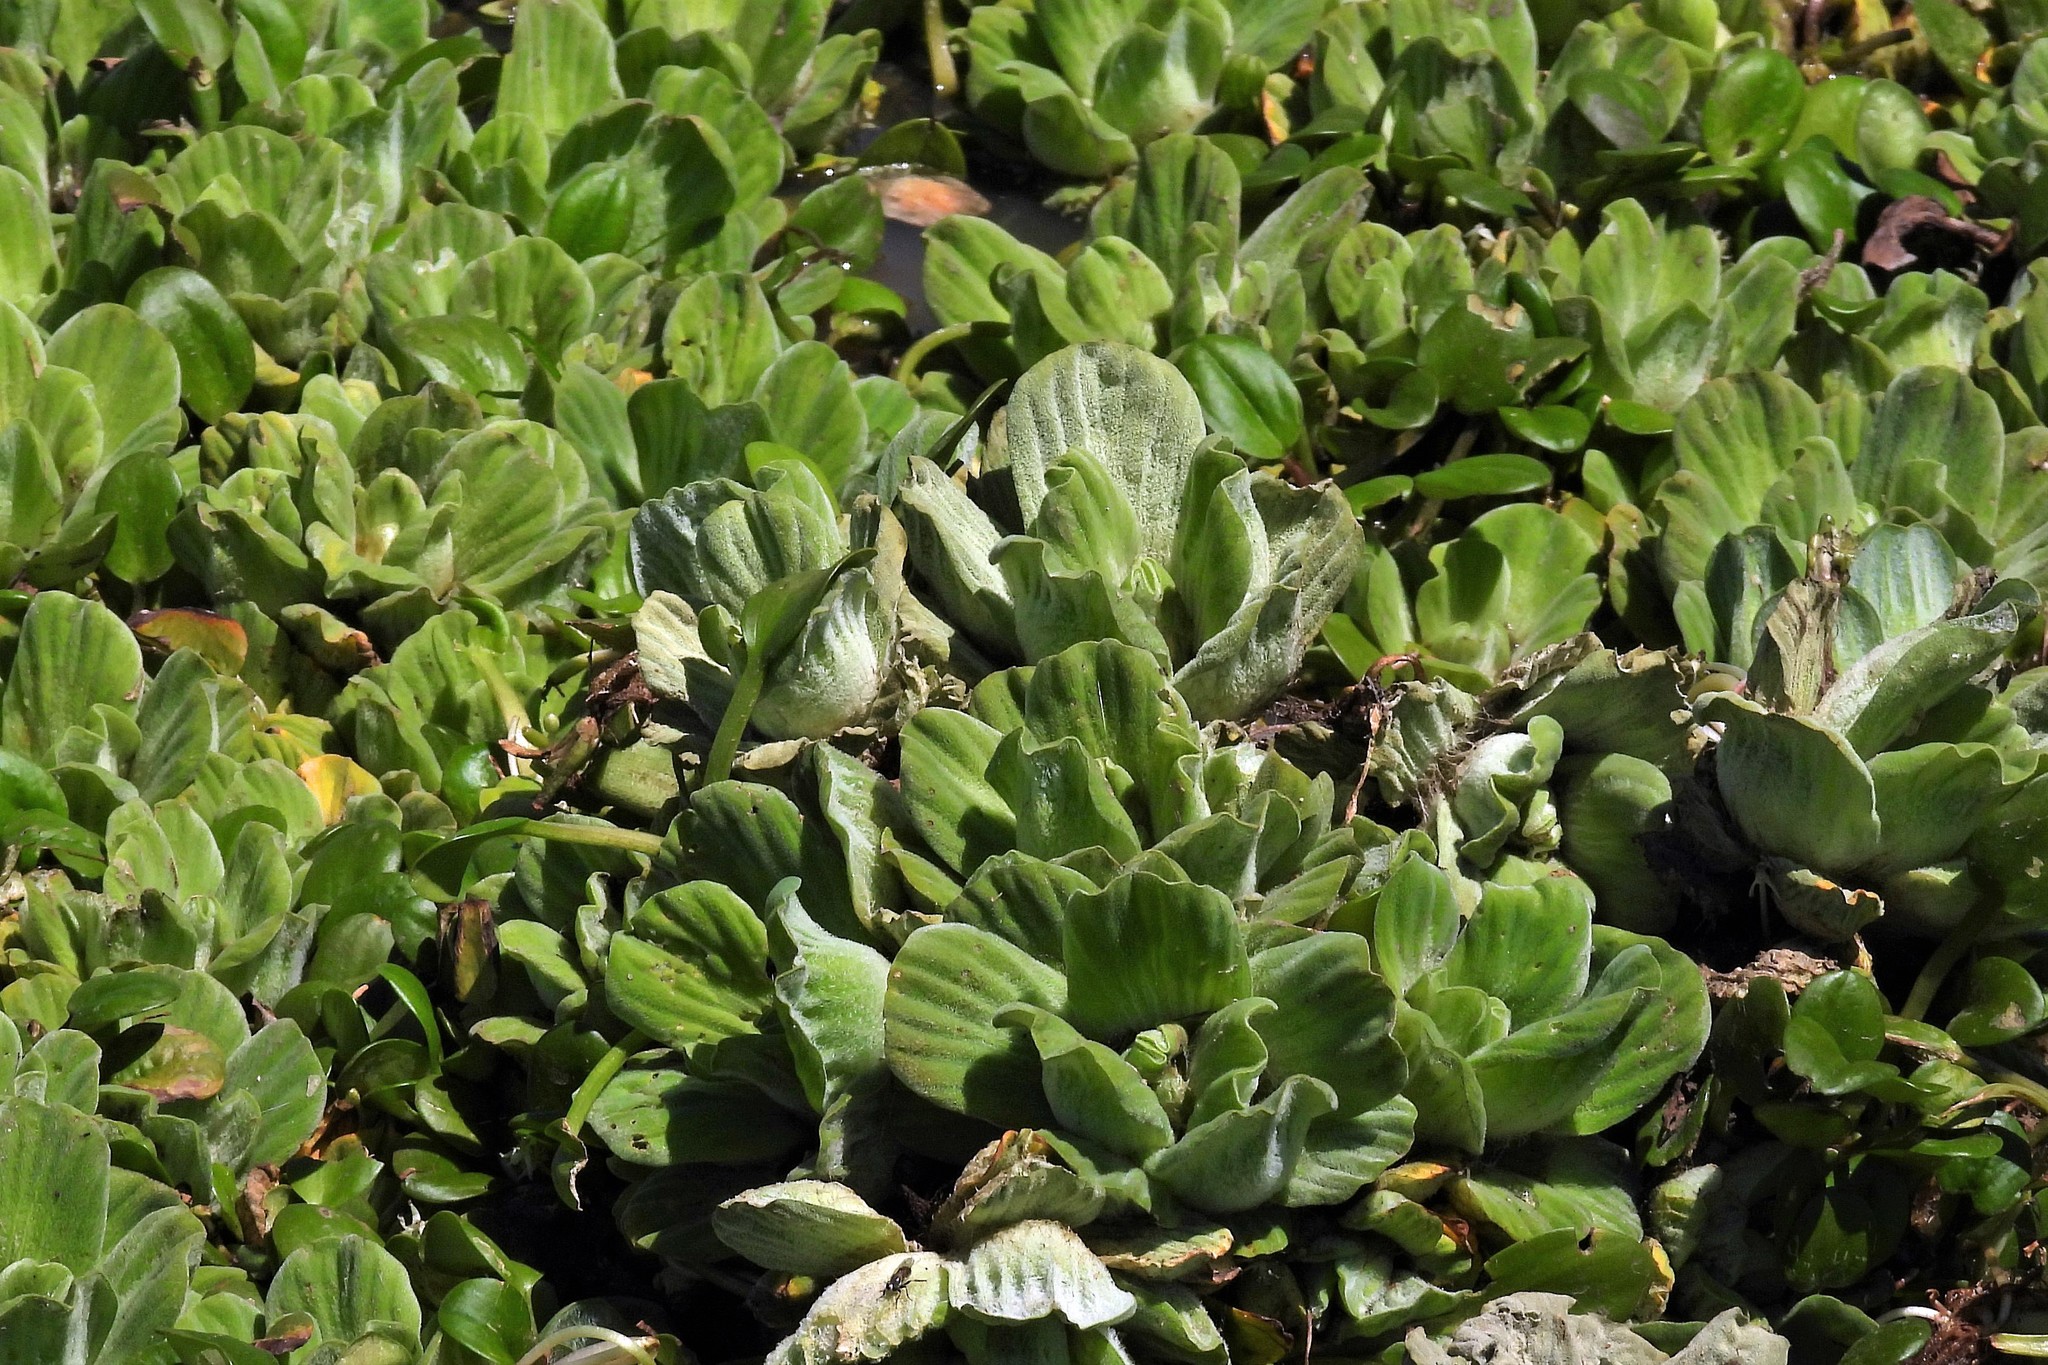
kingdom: Plantae
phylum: Tracheophyta
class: Liliopsida
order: Alismatales
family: Araceae
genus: Pistia
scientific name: Pistia stratiotes
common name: Water lettuce
